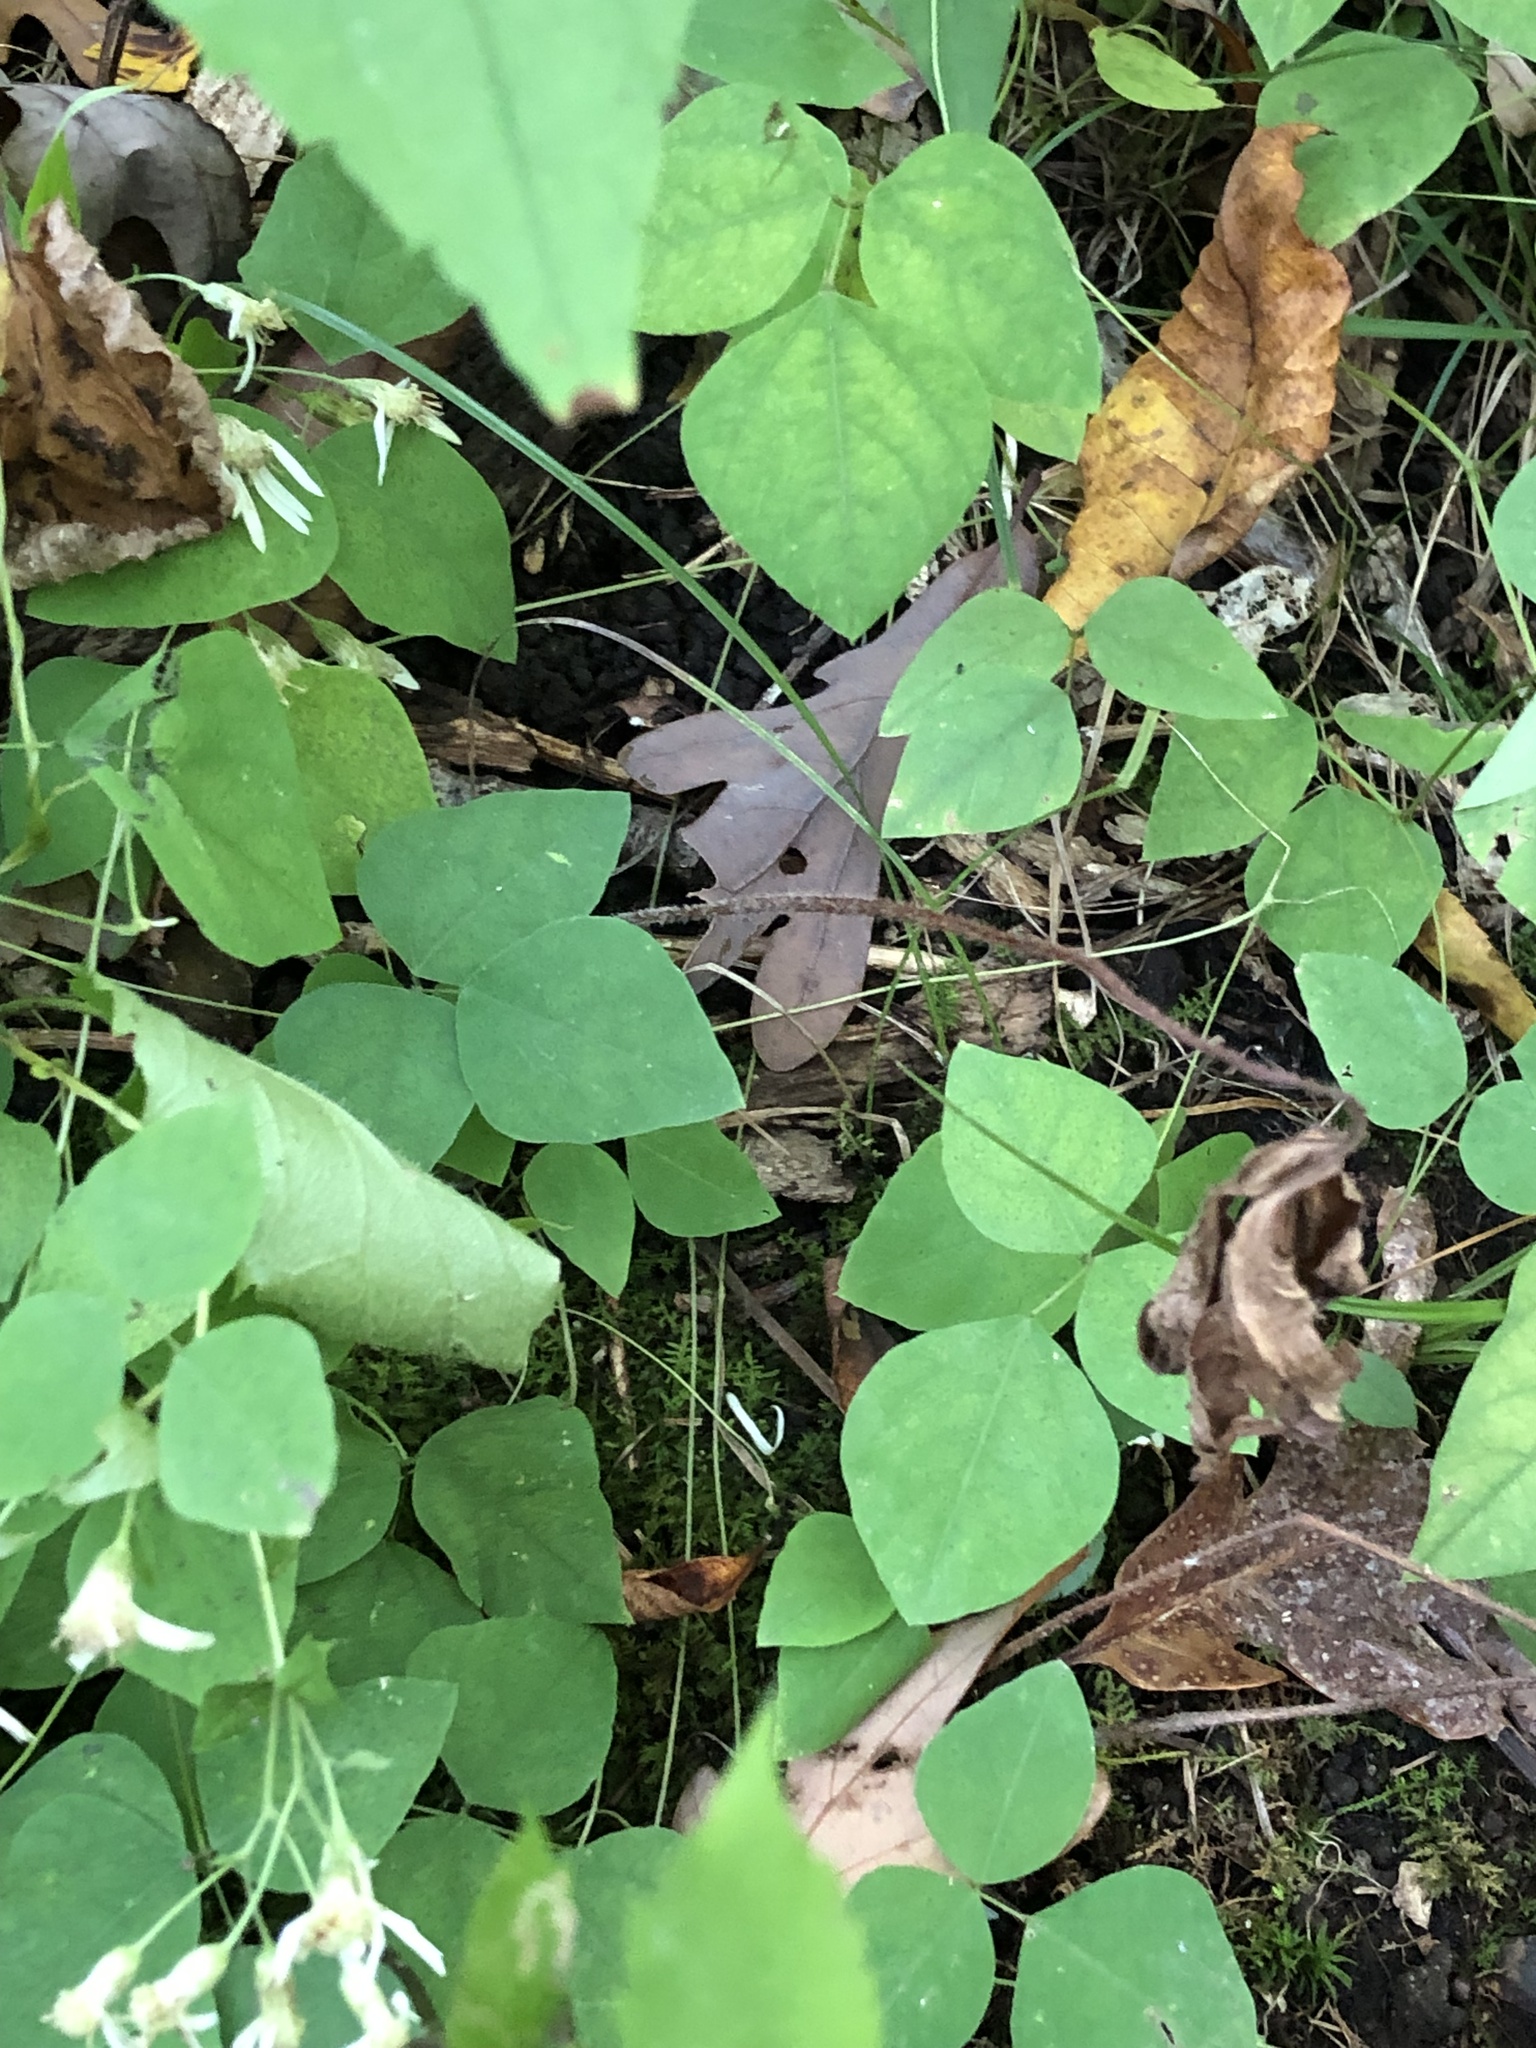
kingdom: Plantae
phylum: Tracheophyta
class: Magnoliopsida
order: Fabales
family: Fabaceae
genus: Amphicarpaea
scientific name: Amphicarpaea bracteata
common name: American hog peanut
